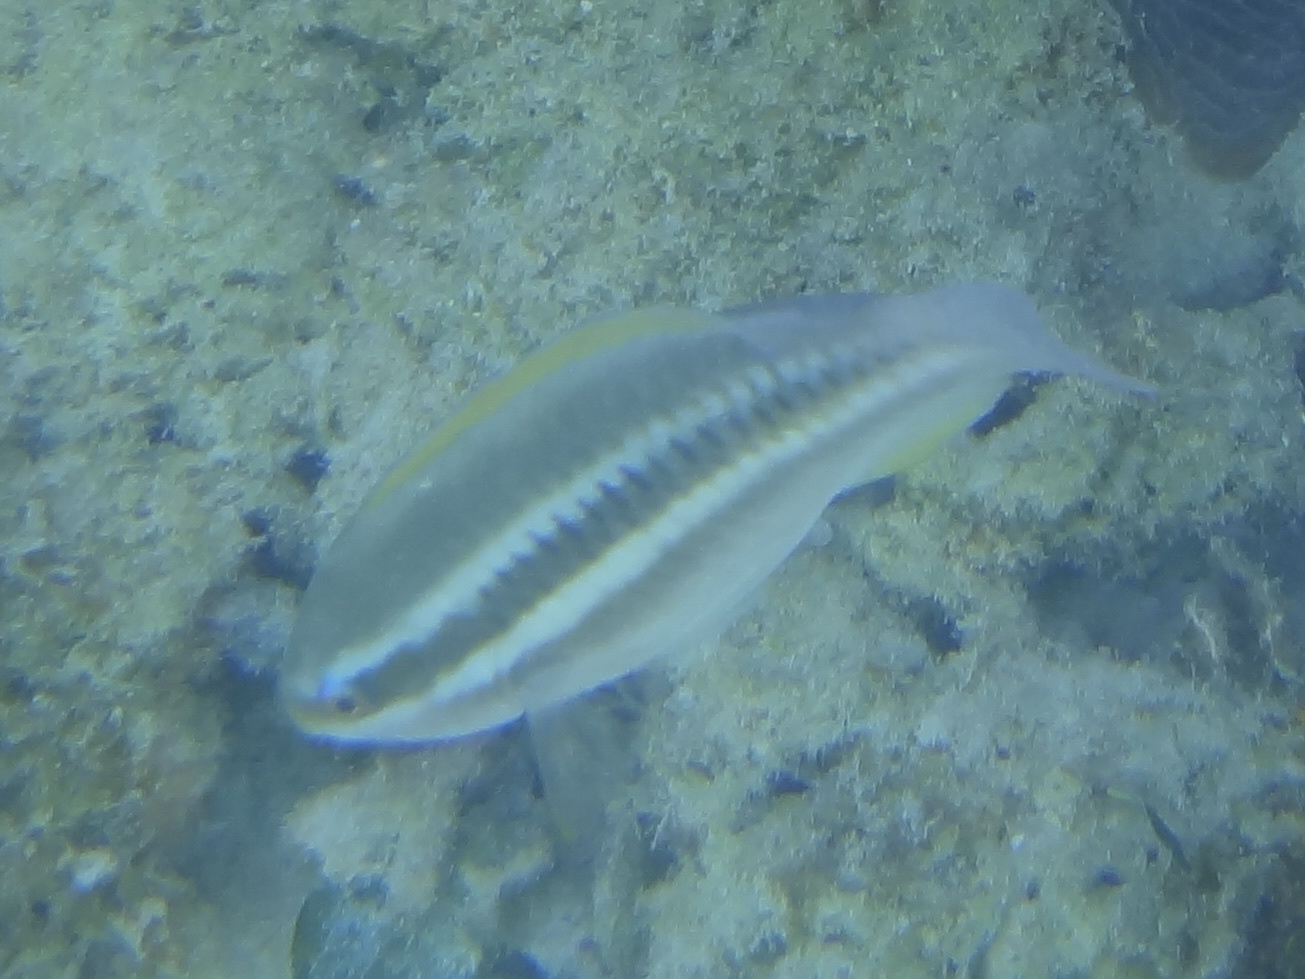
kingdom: Animalia
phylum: Chordata
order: Perciformes
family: Scaridae
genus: Scarus
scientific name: Scarus iseri
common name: Striped parrotfish
